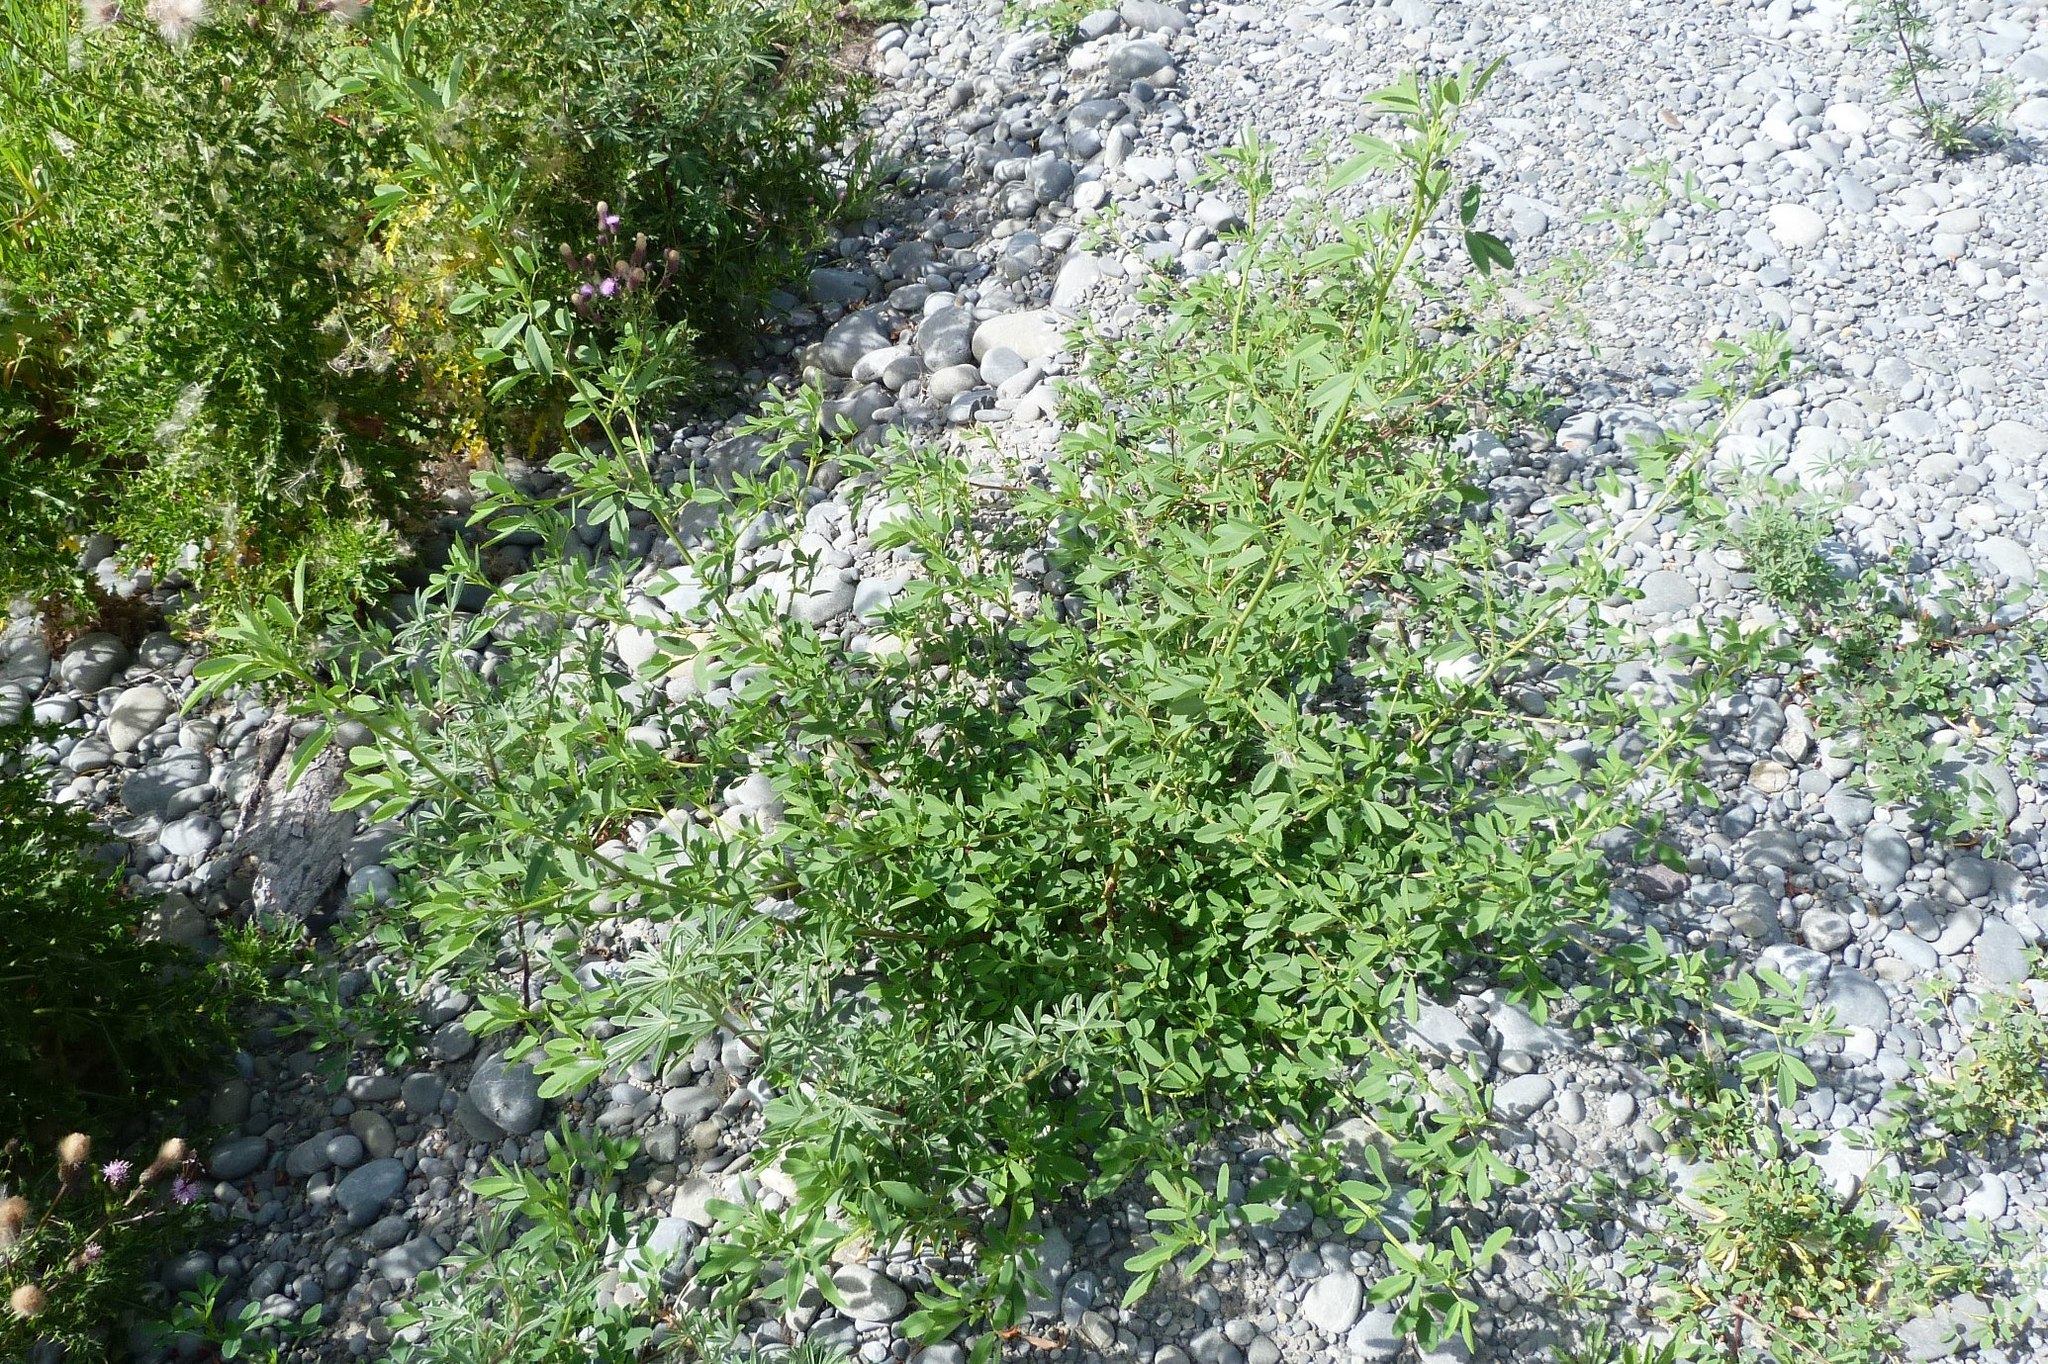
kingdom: Plantae
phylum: Tracheophyta
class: Magnoliopsida
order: Fabales
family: Fabaceae
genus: Medicago
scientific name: Medicago sativa
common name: Alfalfa
